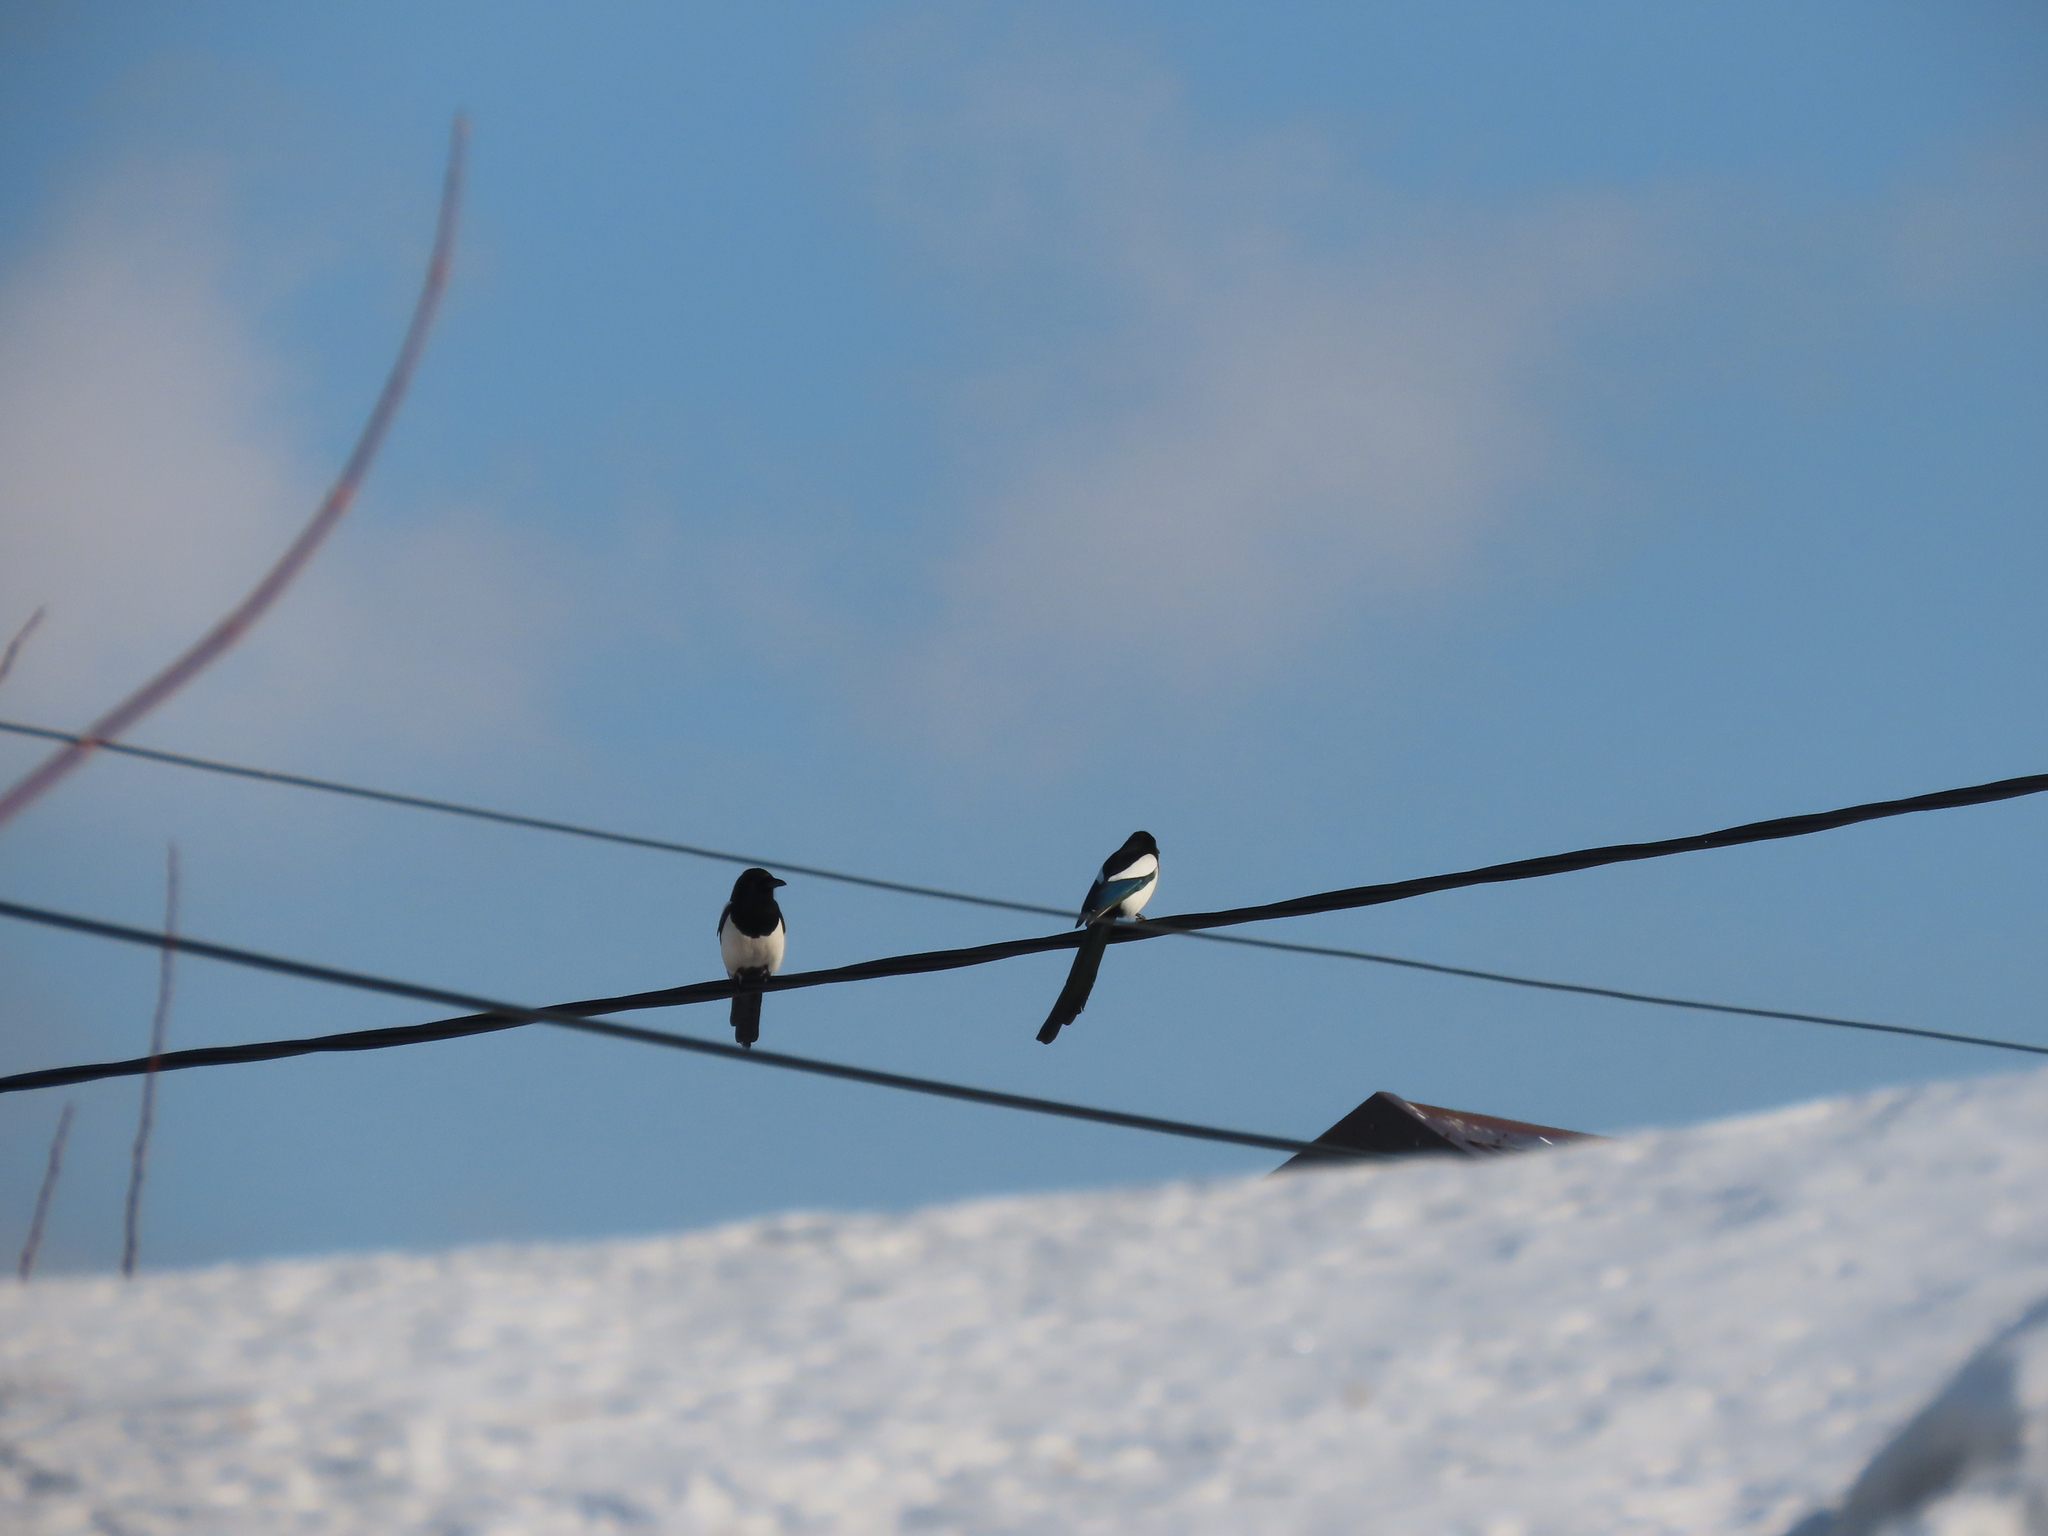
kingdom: Animalia
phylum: Chordata
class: Aves
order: Passeriformes
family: Corvidae
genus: Pica
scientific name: Pica pica
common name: Eurasian magpie
